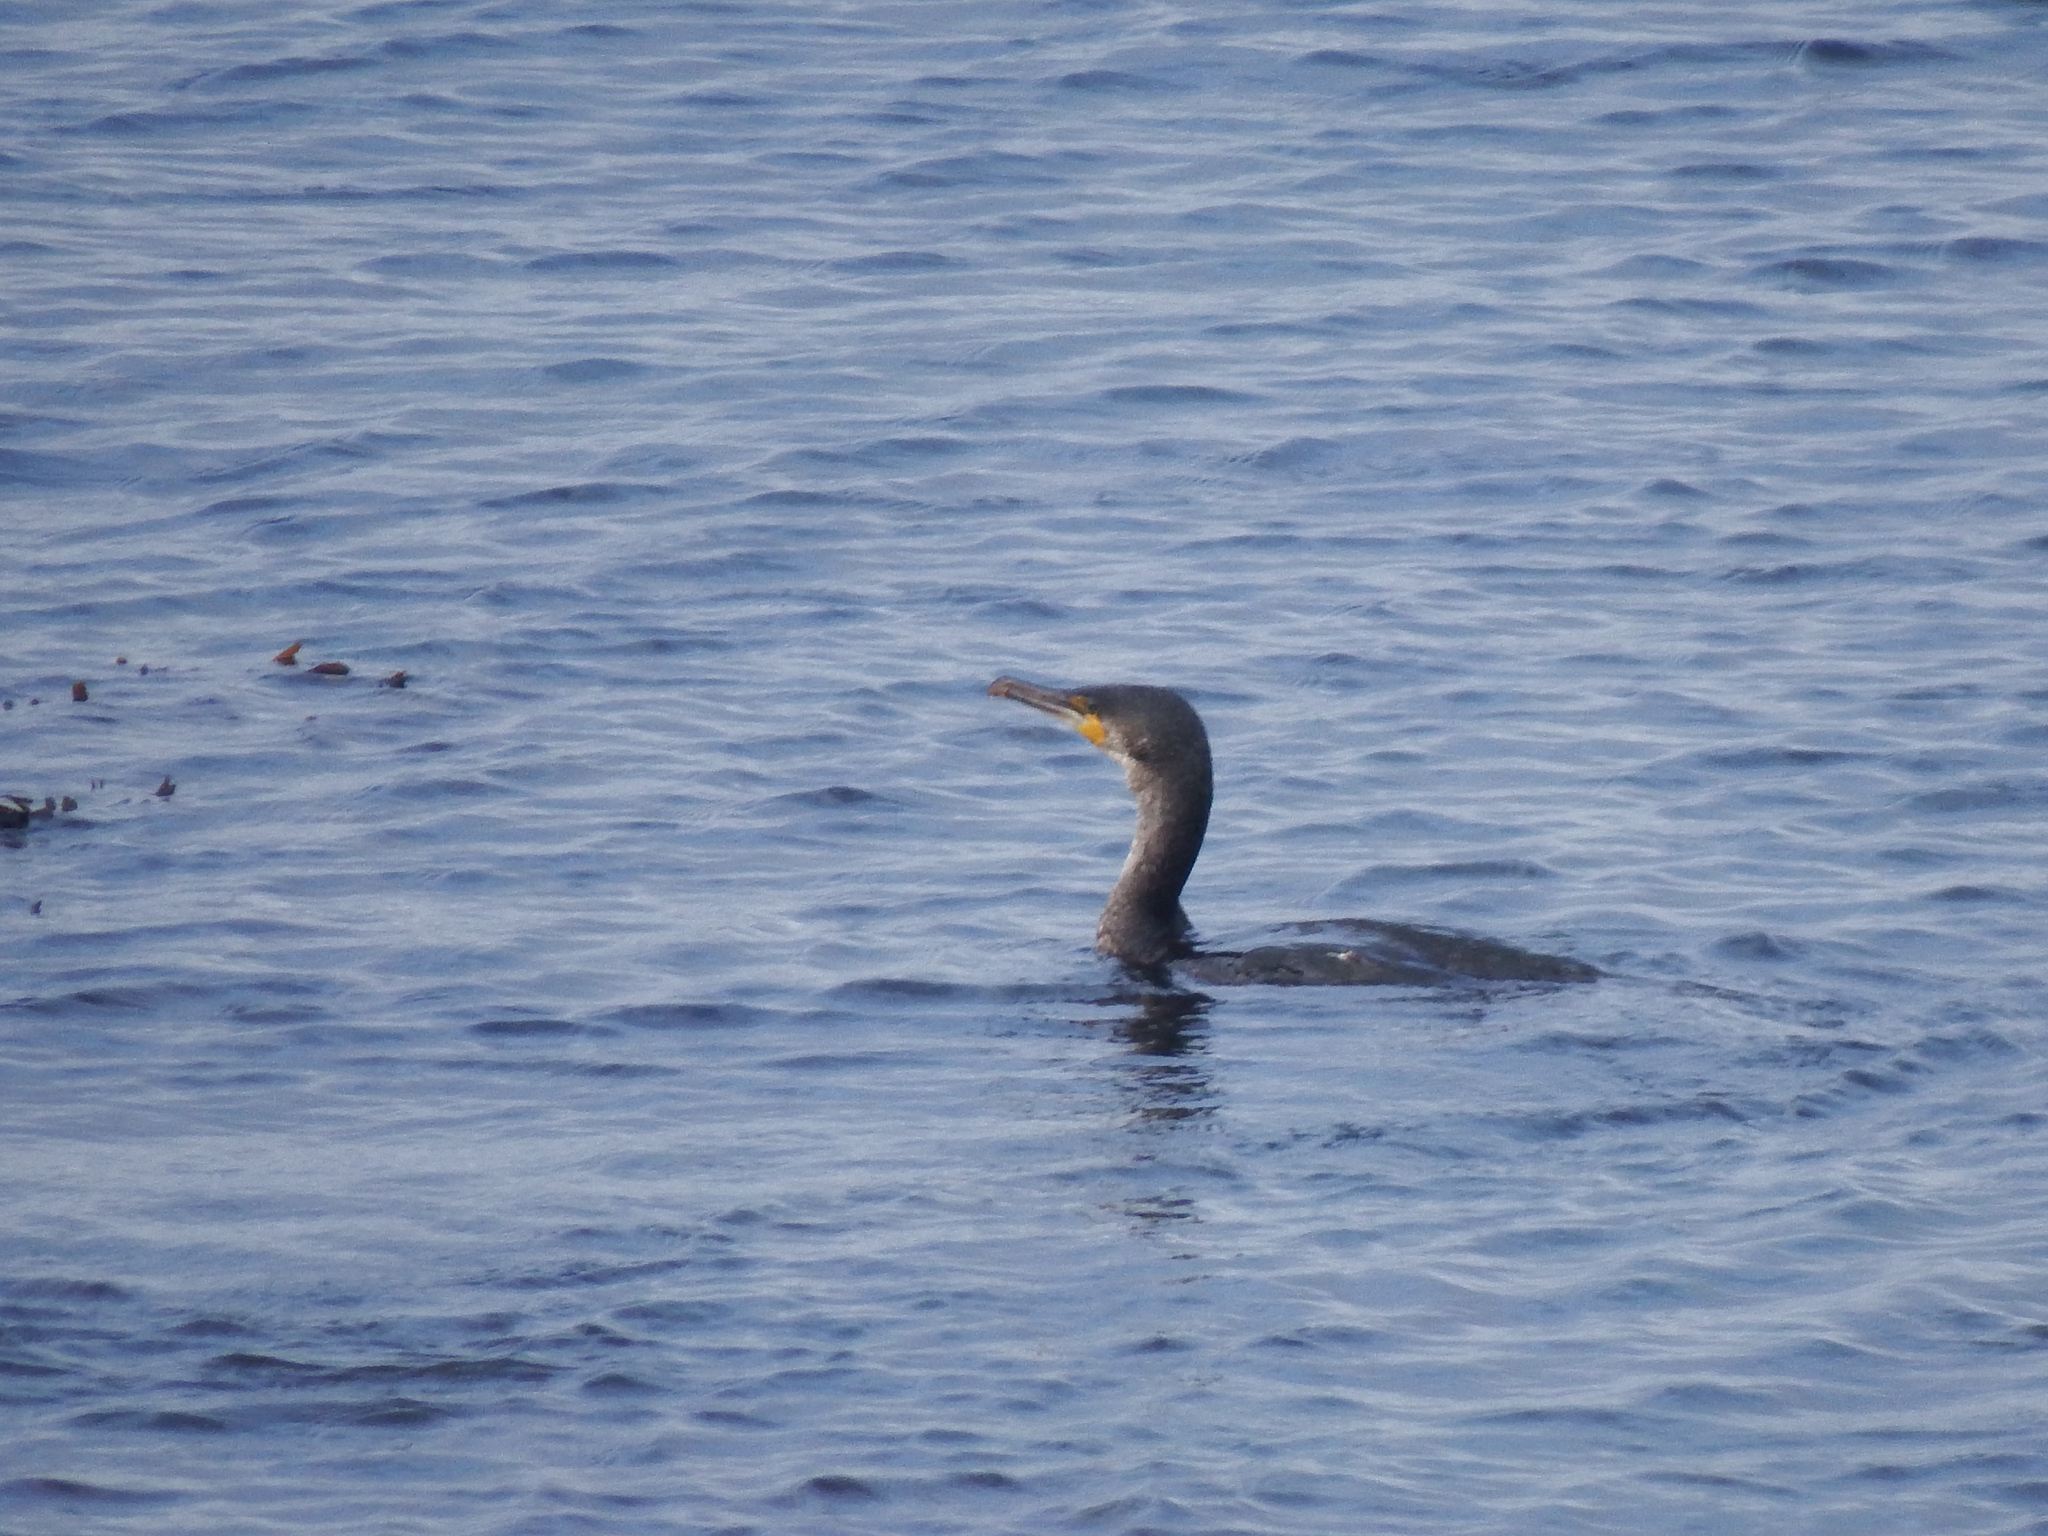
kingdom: Animalia
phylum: Chordata
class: Aves
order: Suliformes
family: Phalacrocoracidae
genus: Phalacrocorax
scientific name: Phalacrocorax carbo
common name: Great cormorant
